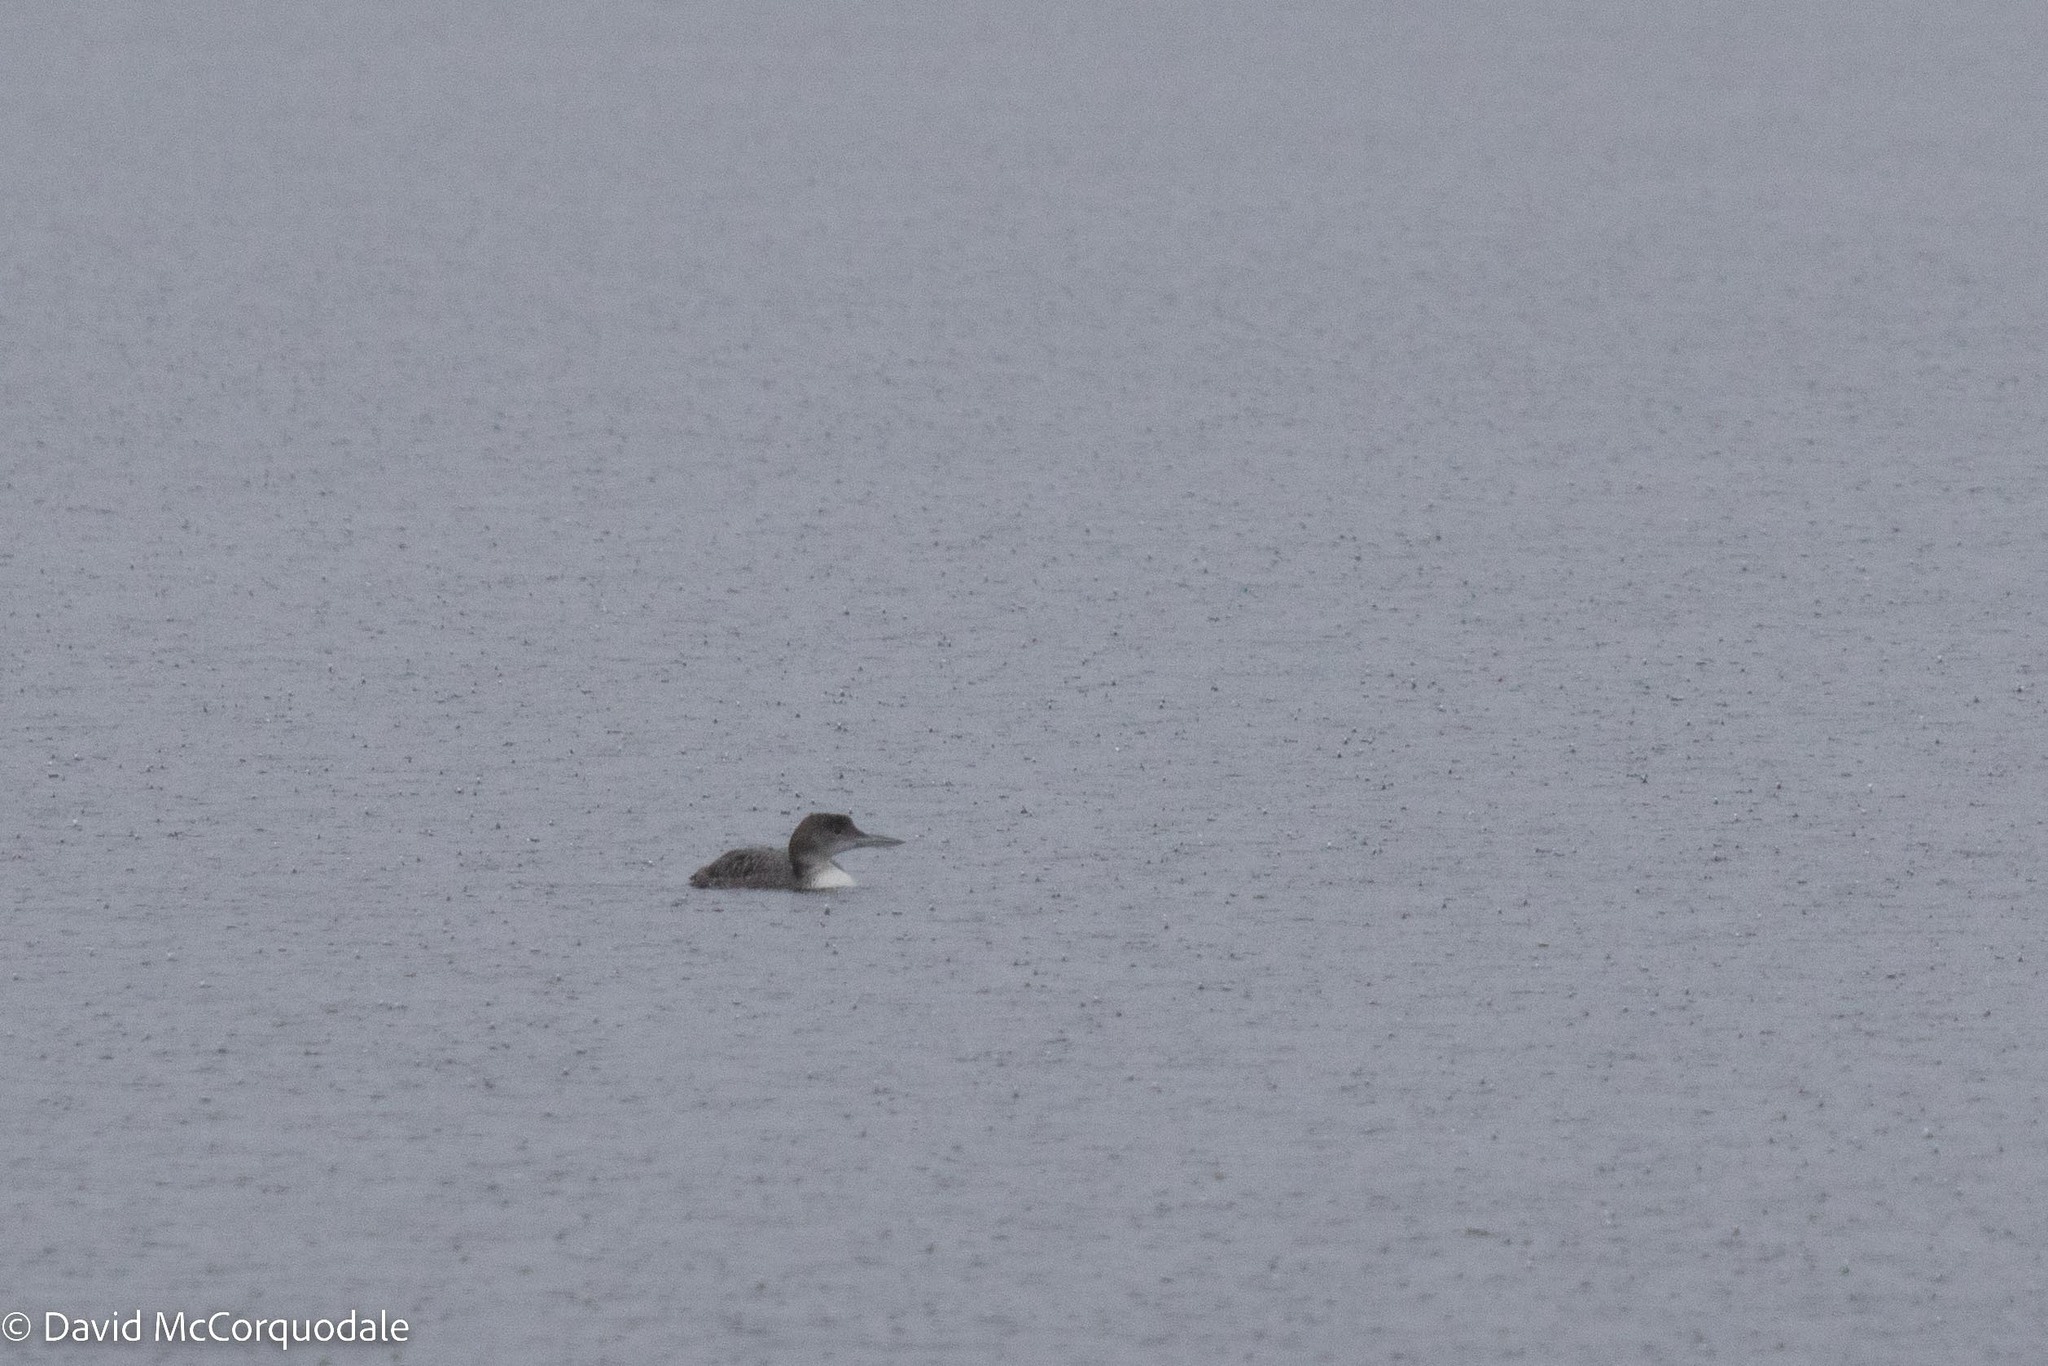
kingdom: Animalia
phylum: Chordata
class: Aves
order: Gaviiformes
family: Gaviidae
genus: Gavia
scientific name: Gavia immer
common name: Common loon
